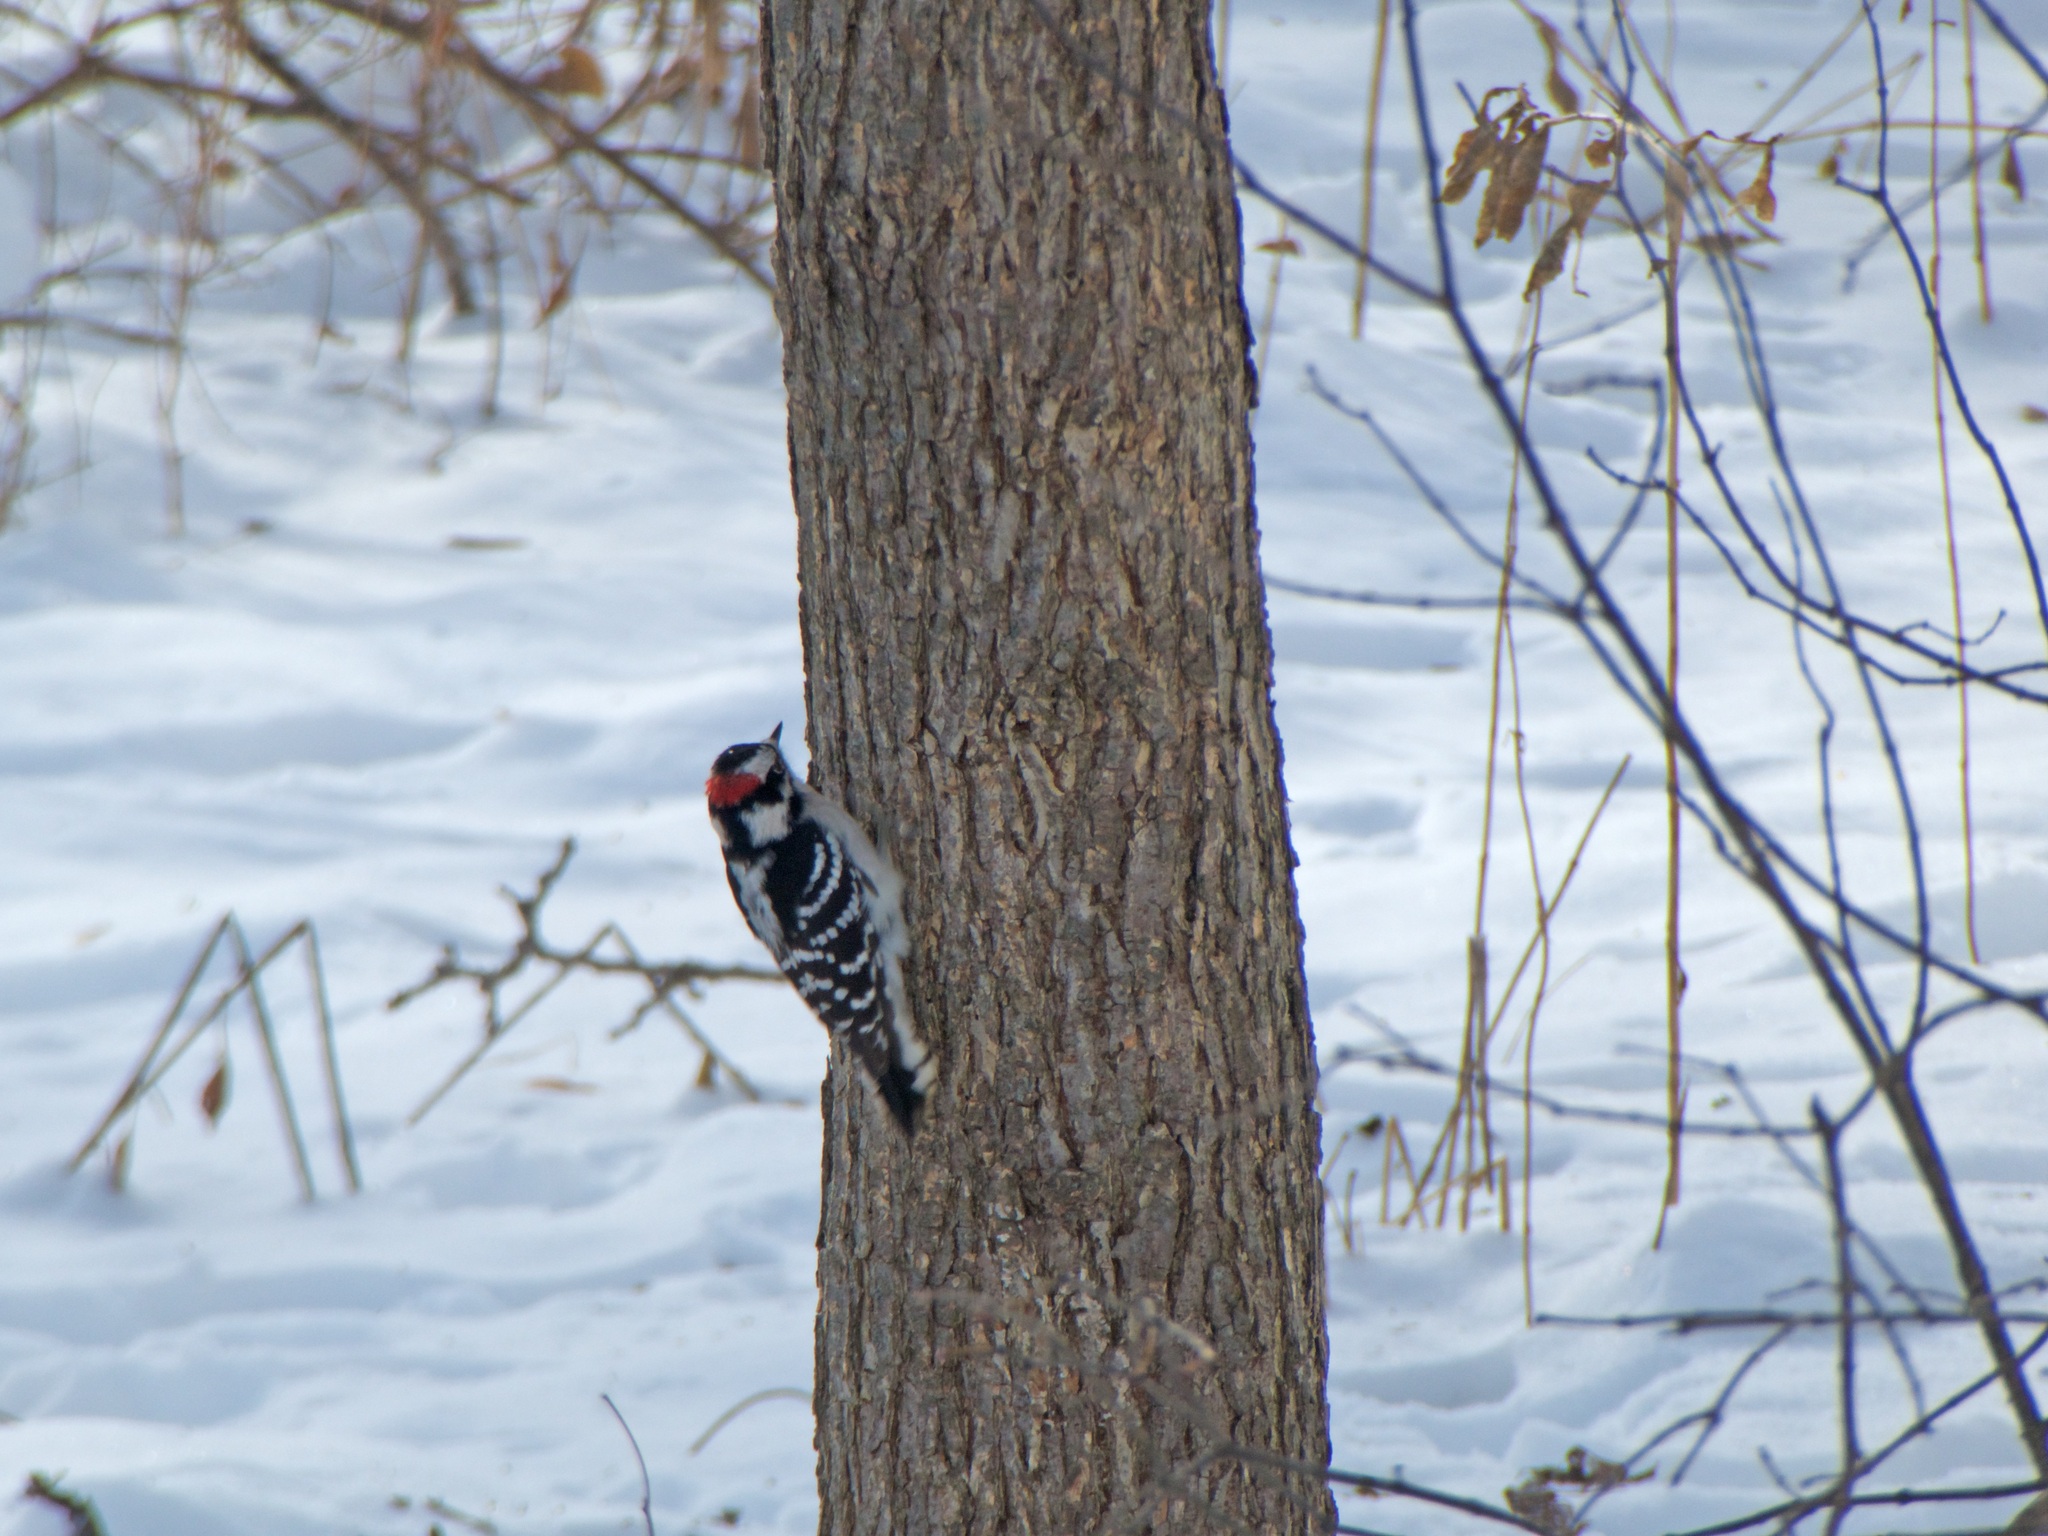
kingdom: Animalia
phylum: Chordata
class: Aves
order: Piciformes
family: Picidae
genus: Dryobates
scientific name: Dryobates pubescens
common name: Downy woodpecker
